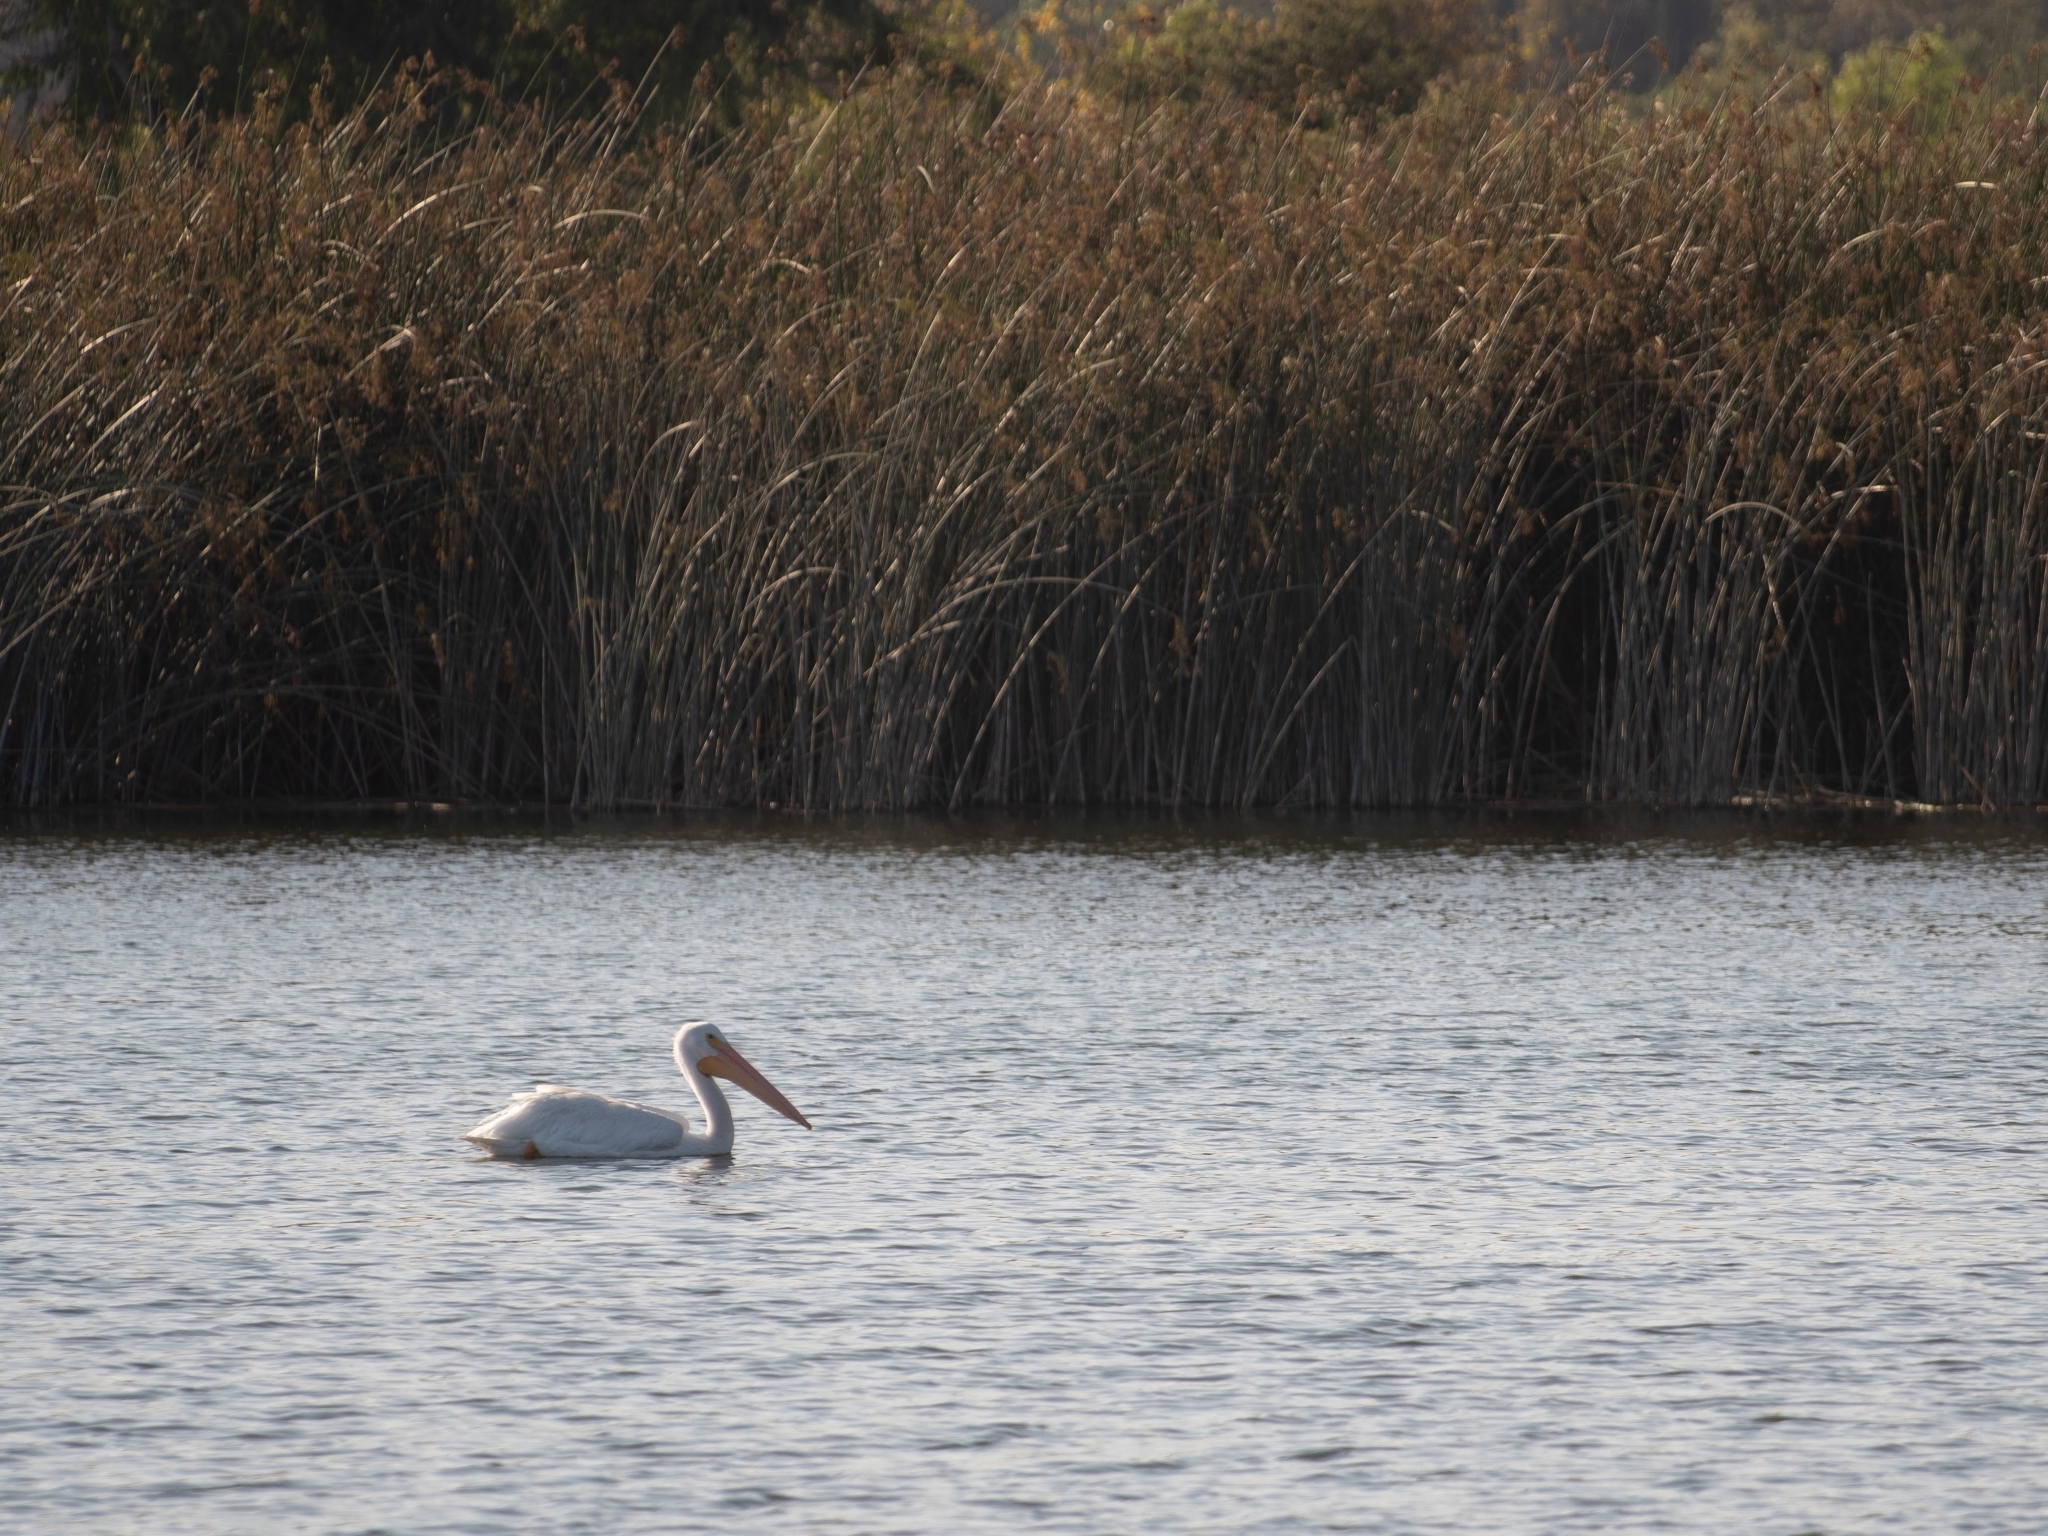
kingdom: Animalia
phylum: Chordata
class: Aves
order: Pelecaniformes
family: Pelecanidae
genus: Pelecanus
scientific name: Pelecanus erythrorhynchos
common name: American white pelican
